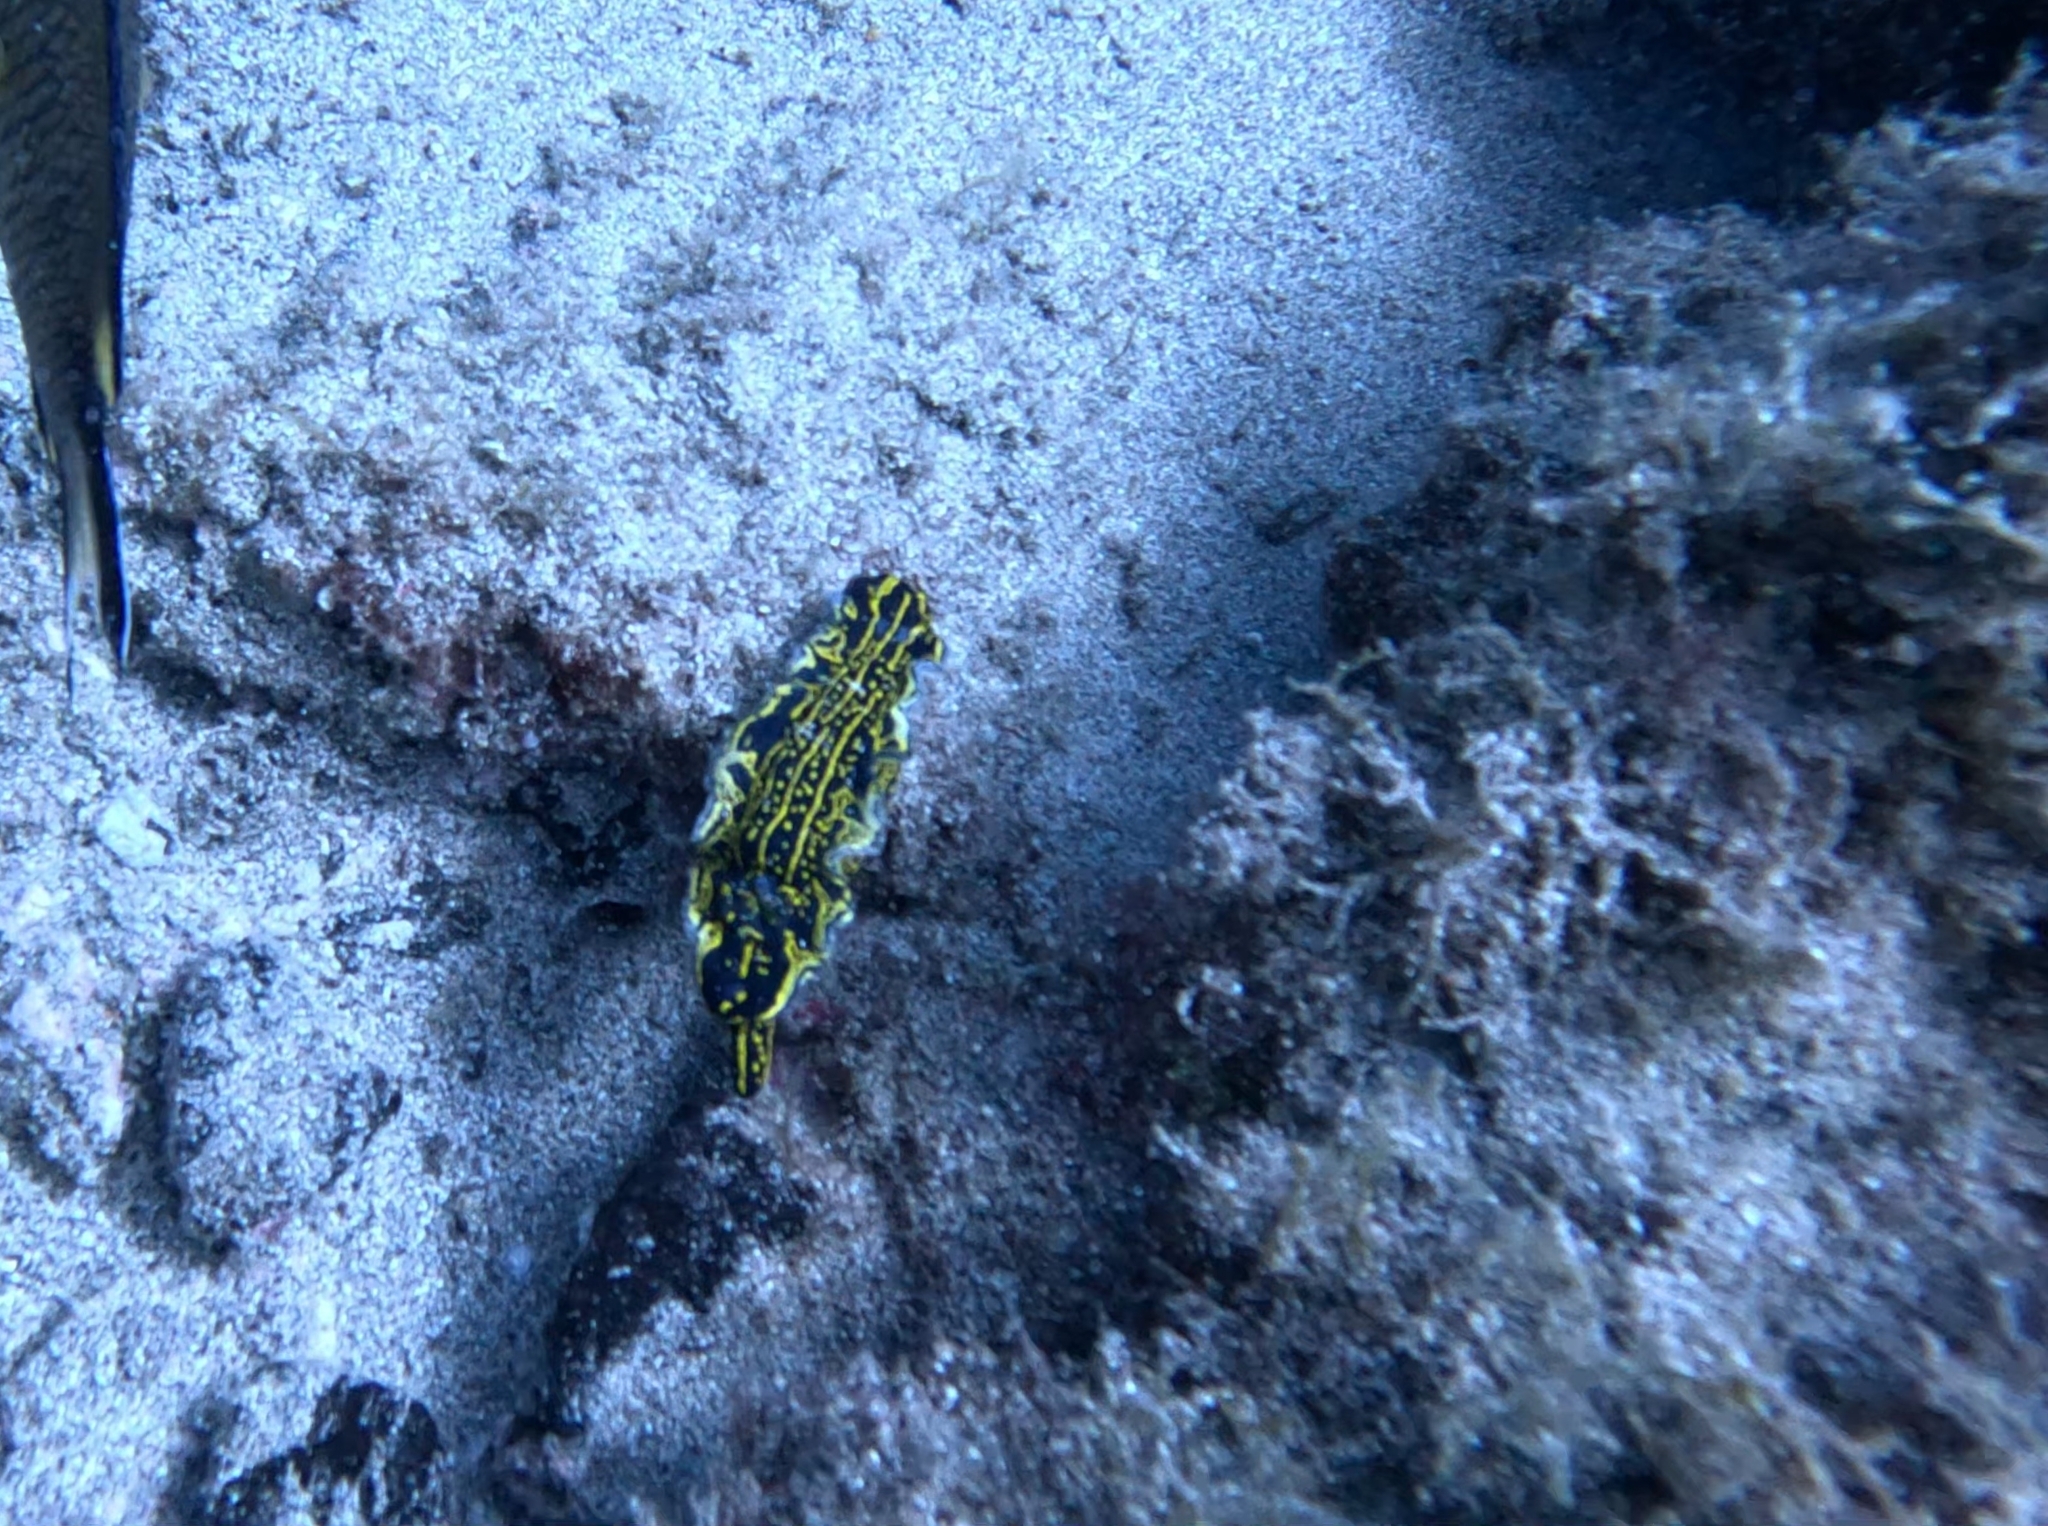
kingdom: Animalia
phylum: Mollusca
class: Gastropoda
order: Nudibranchia
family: Chromodorididae
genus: Felimare
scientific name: Felimare picta
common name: Giant doris
